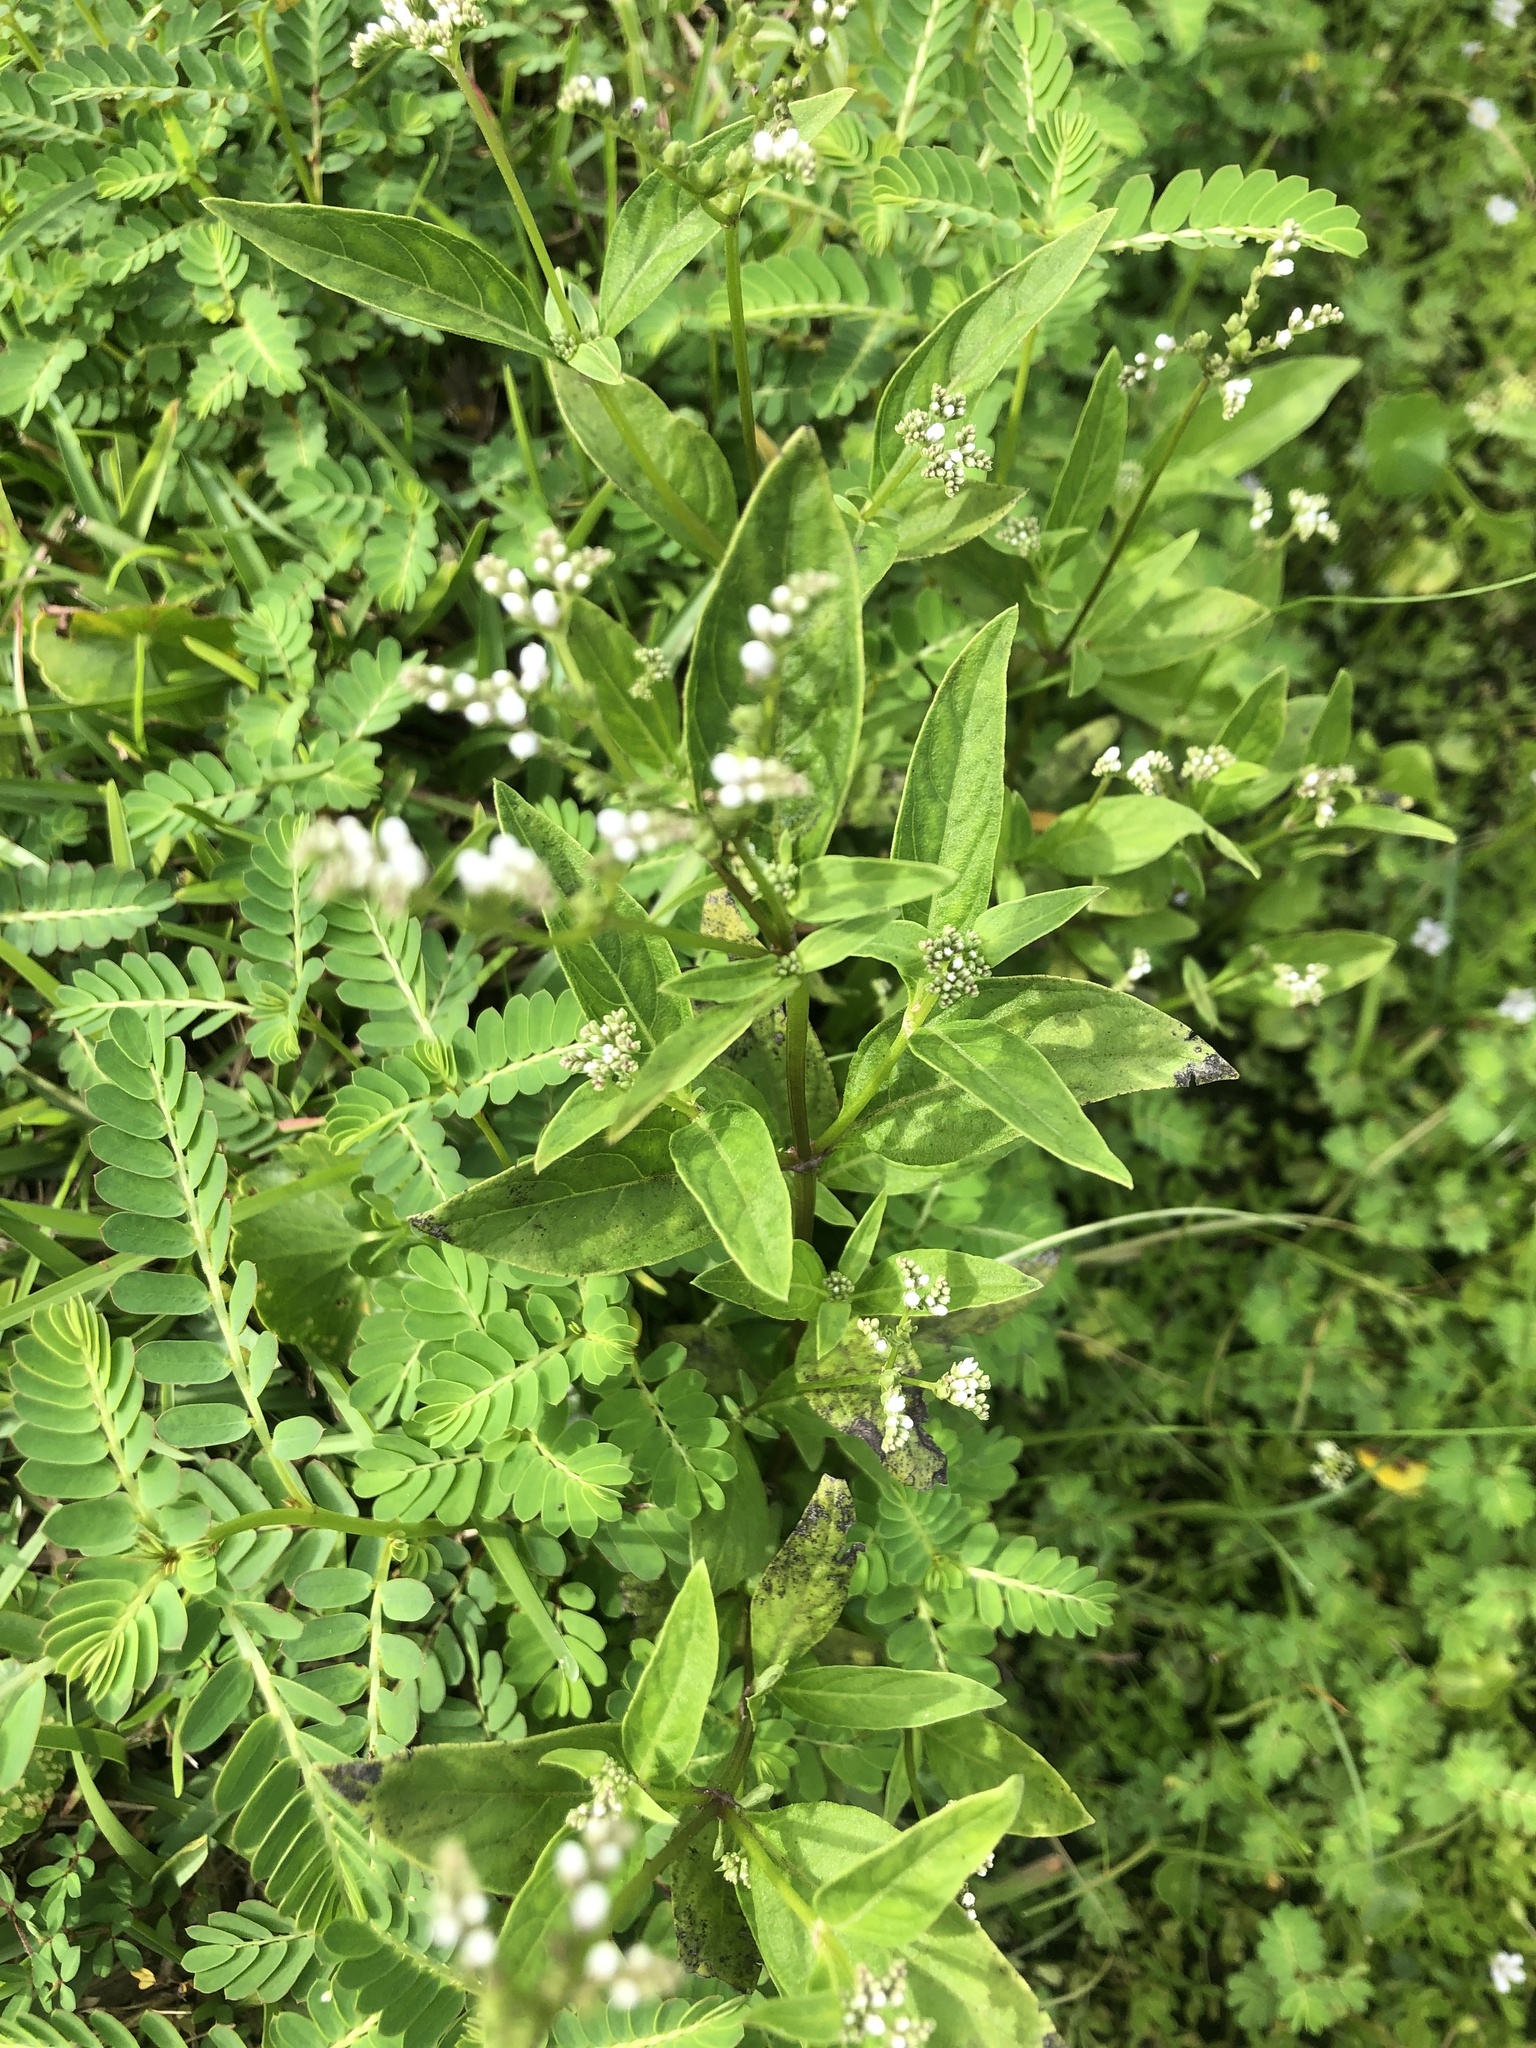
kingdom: Plantae
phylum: Tracheophyta
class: Magnoliopsida
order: Gentianales
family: Loganiaceae
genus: Mitreola
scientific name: Mitreola petiolata
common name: Lax hornpod
